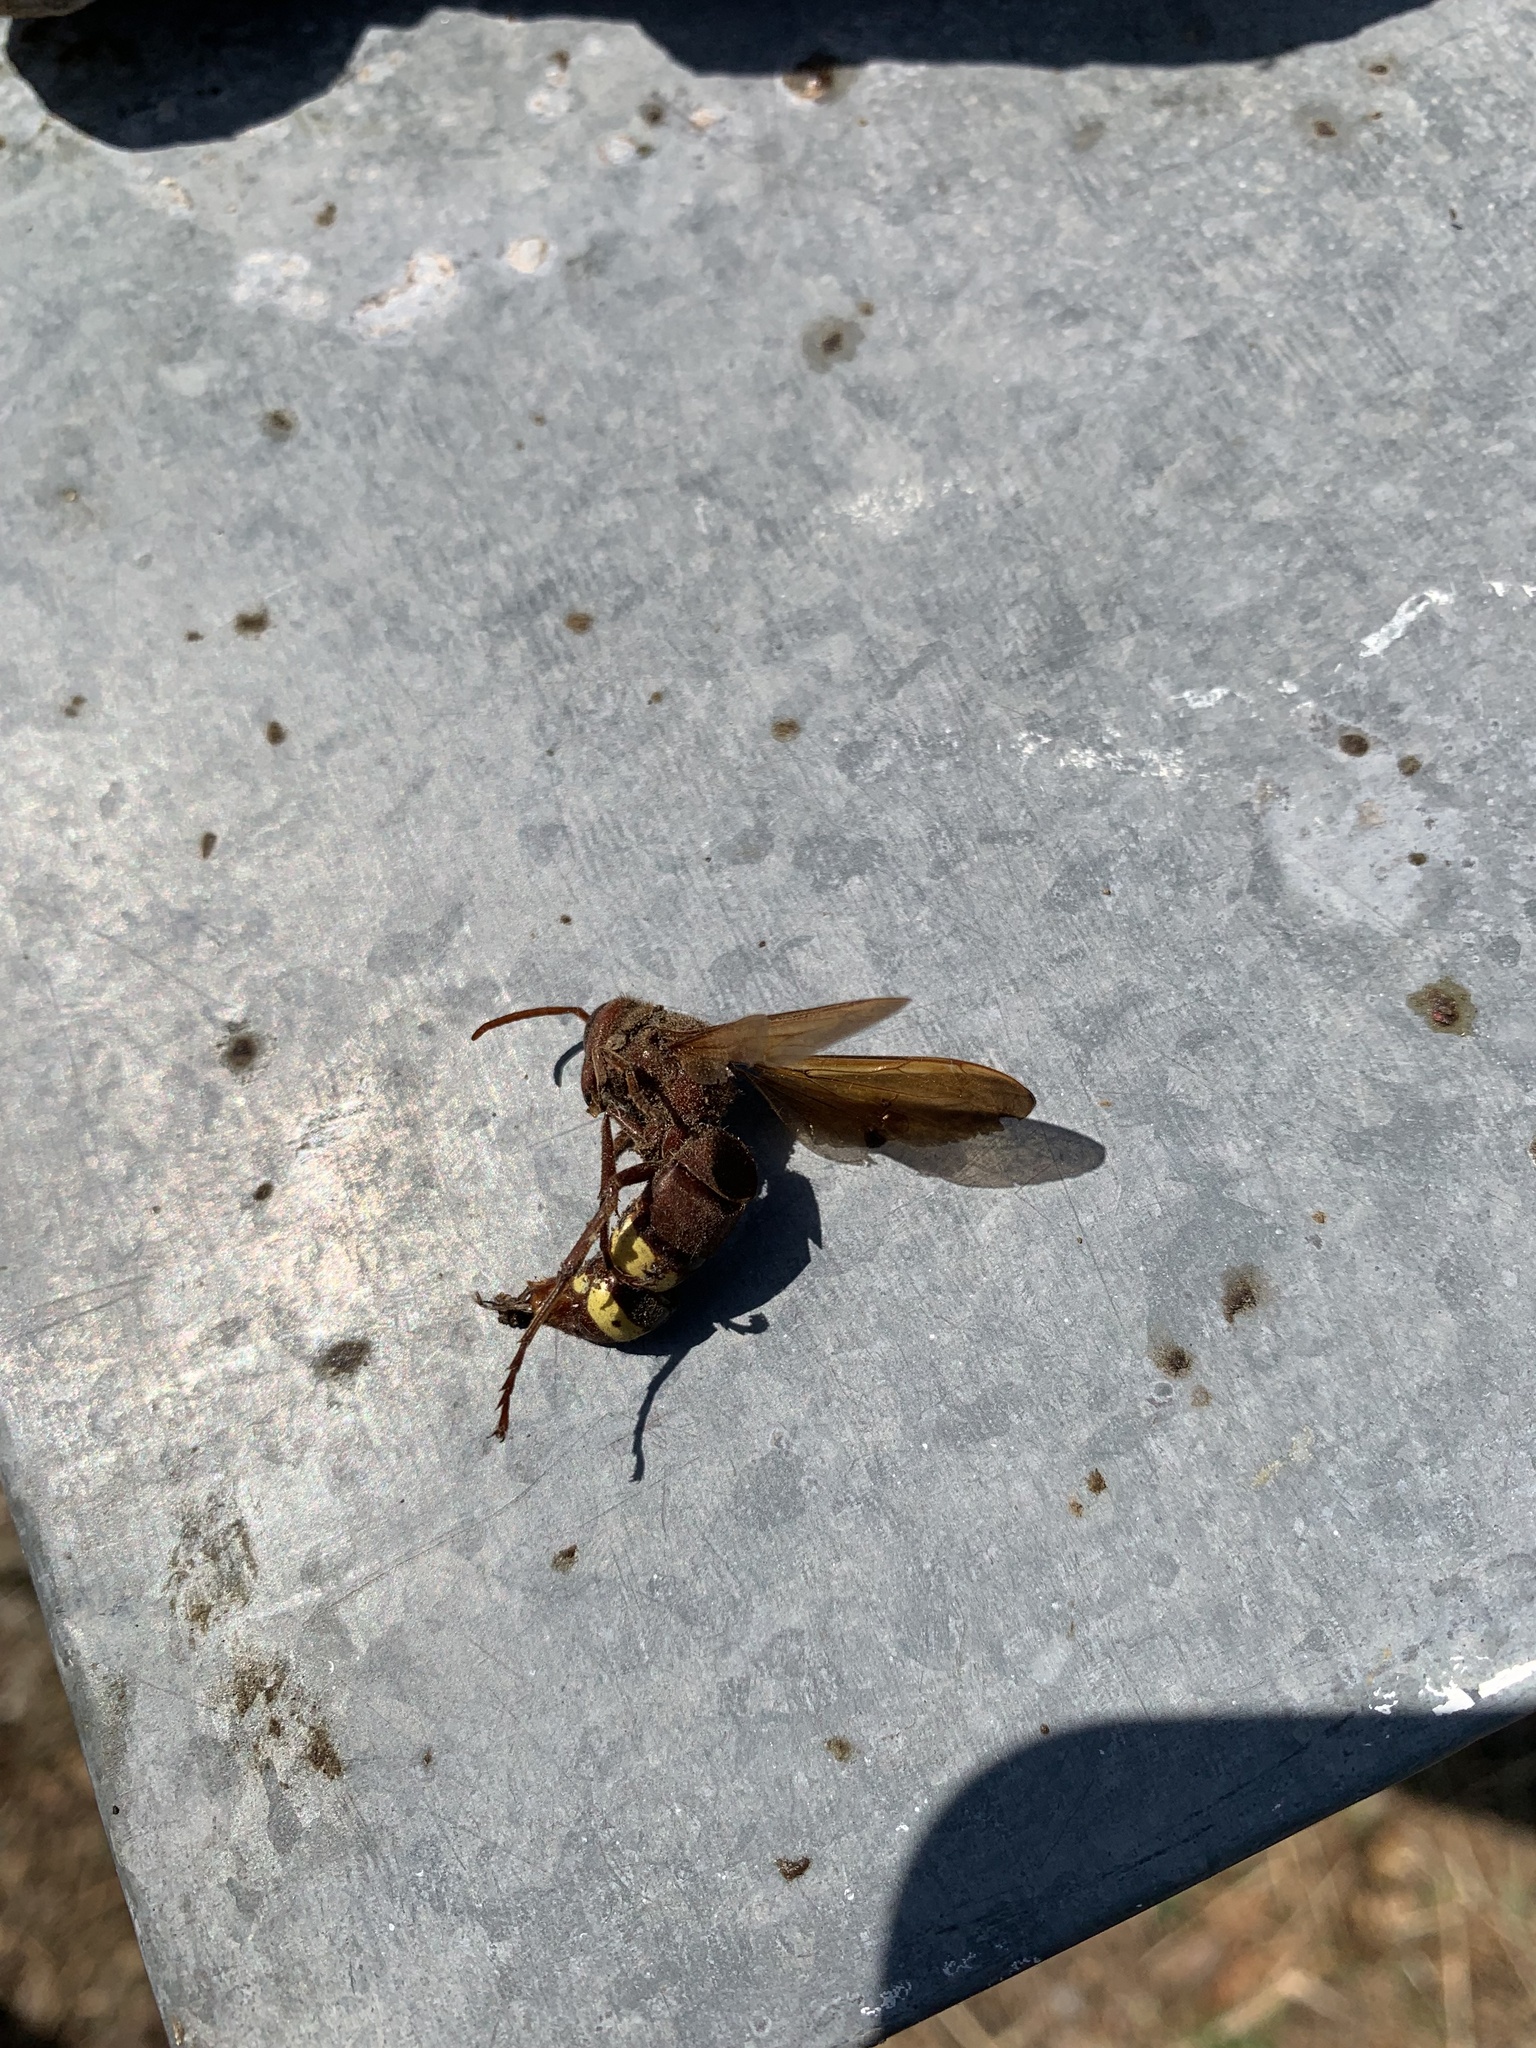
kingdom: Animalia
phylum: Arthropoda
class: Insecta
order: Hymenoptera
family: Vespidae
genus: Vespa
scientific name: Vespa orientalis
